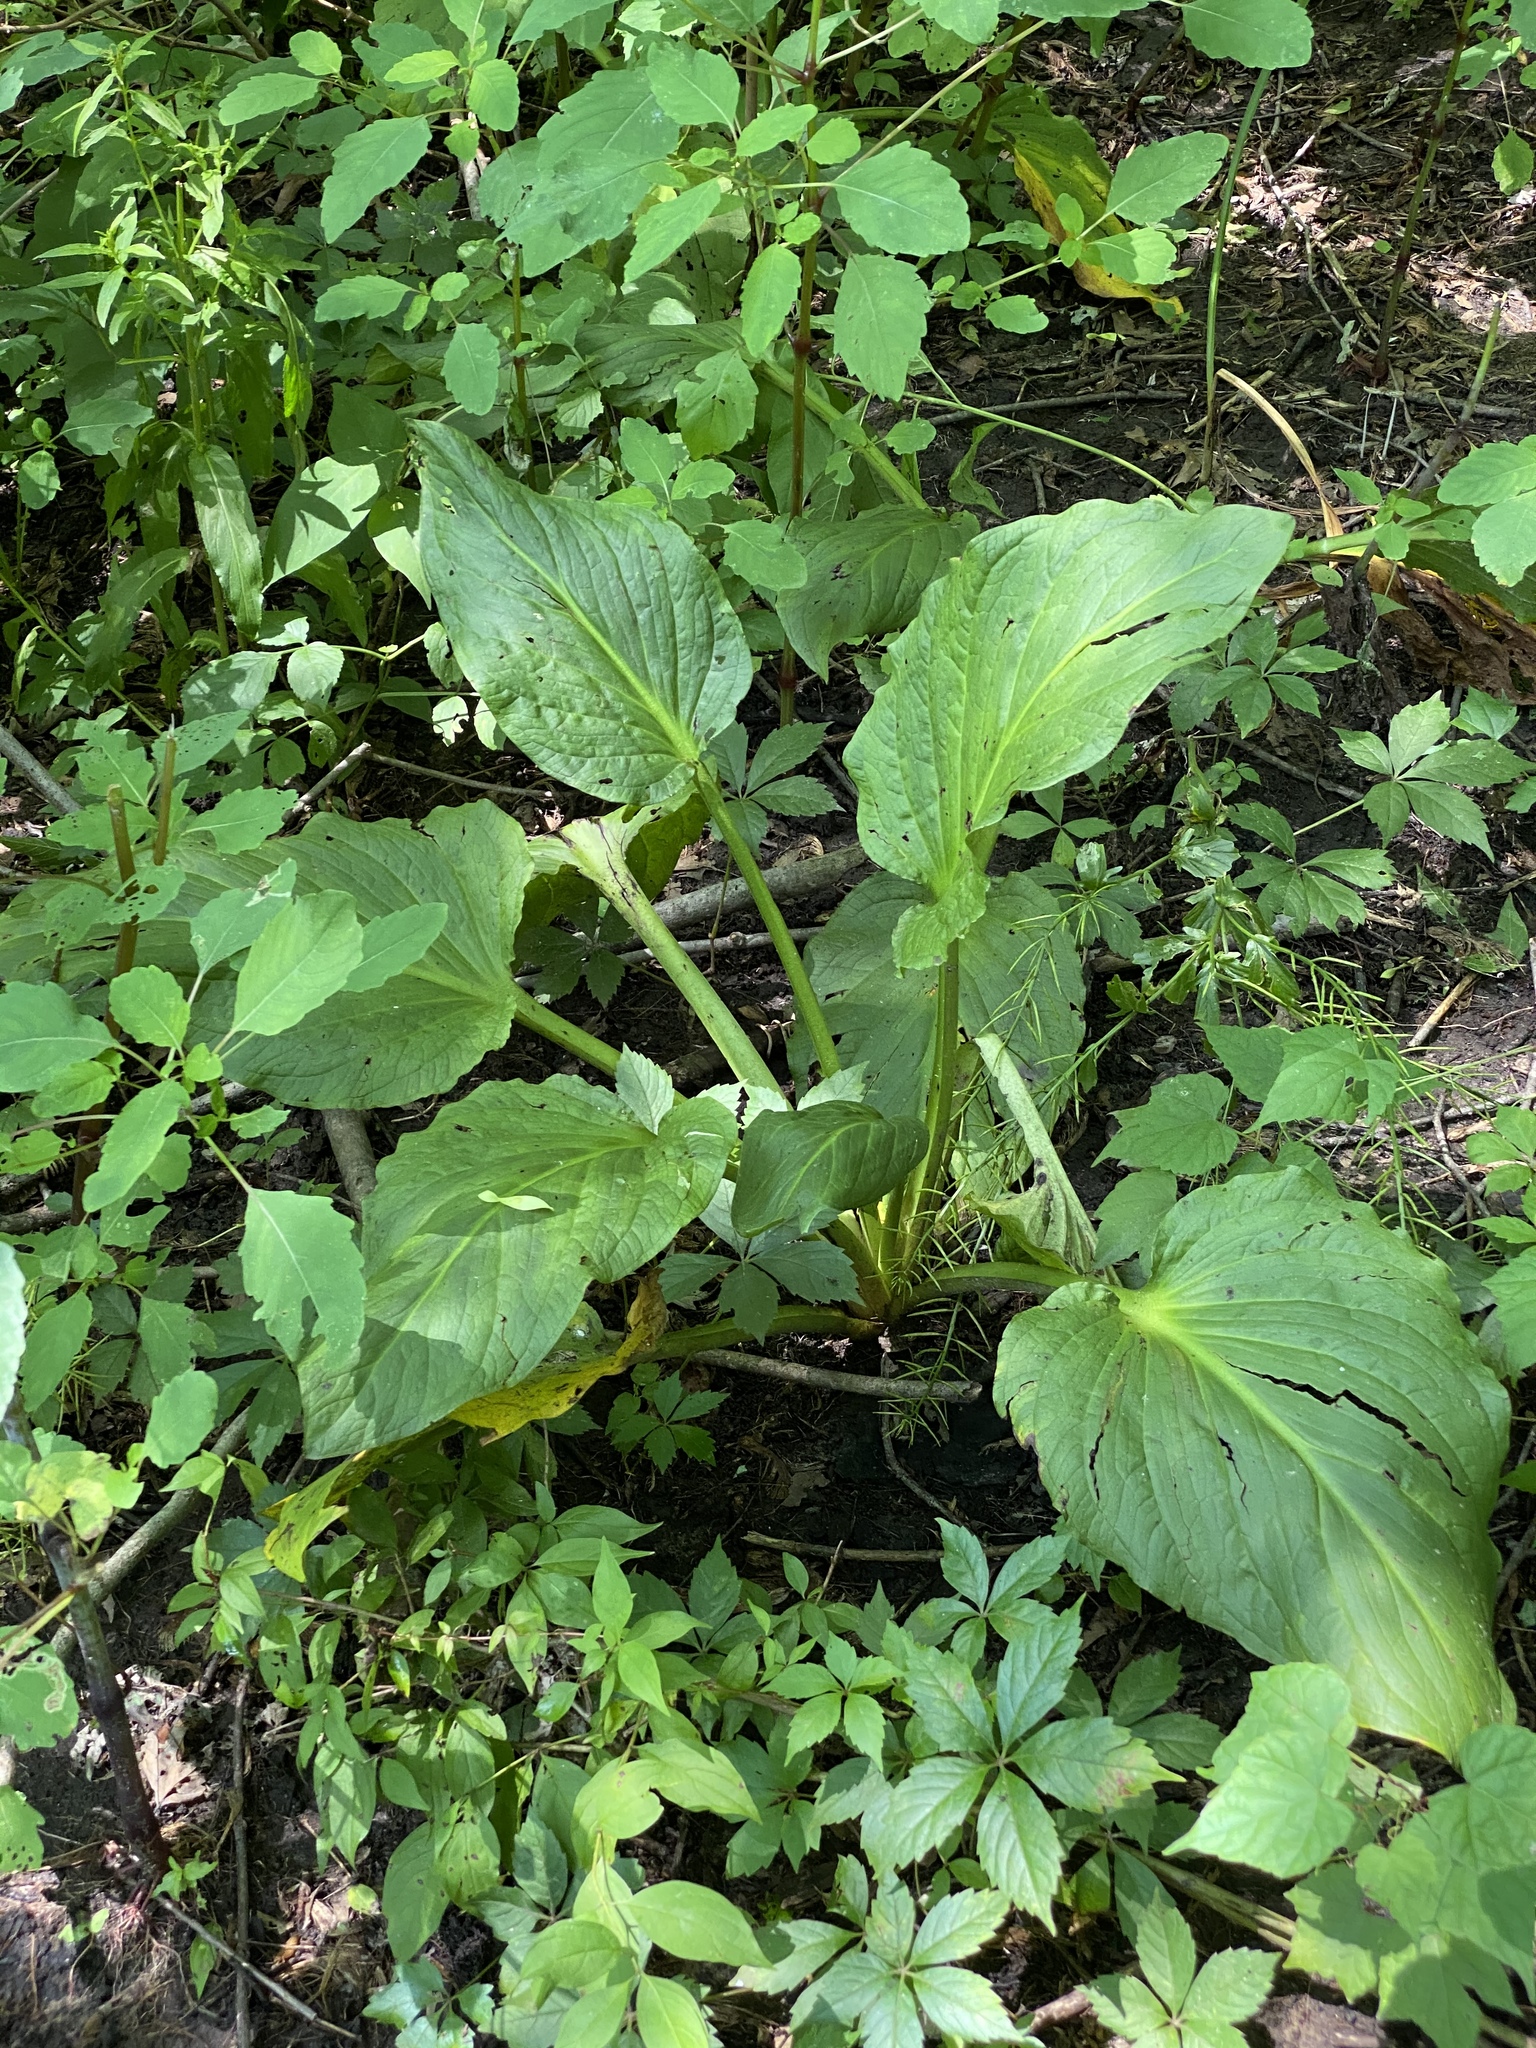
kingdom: Plantae
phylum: Tracheophyta
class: Liliopsida
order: Alismatales
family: Araceae
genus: Symplocarpus
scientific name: Symplocarpus foetidus
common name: Eastern skunk cabbage
